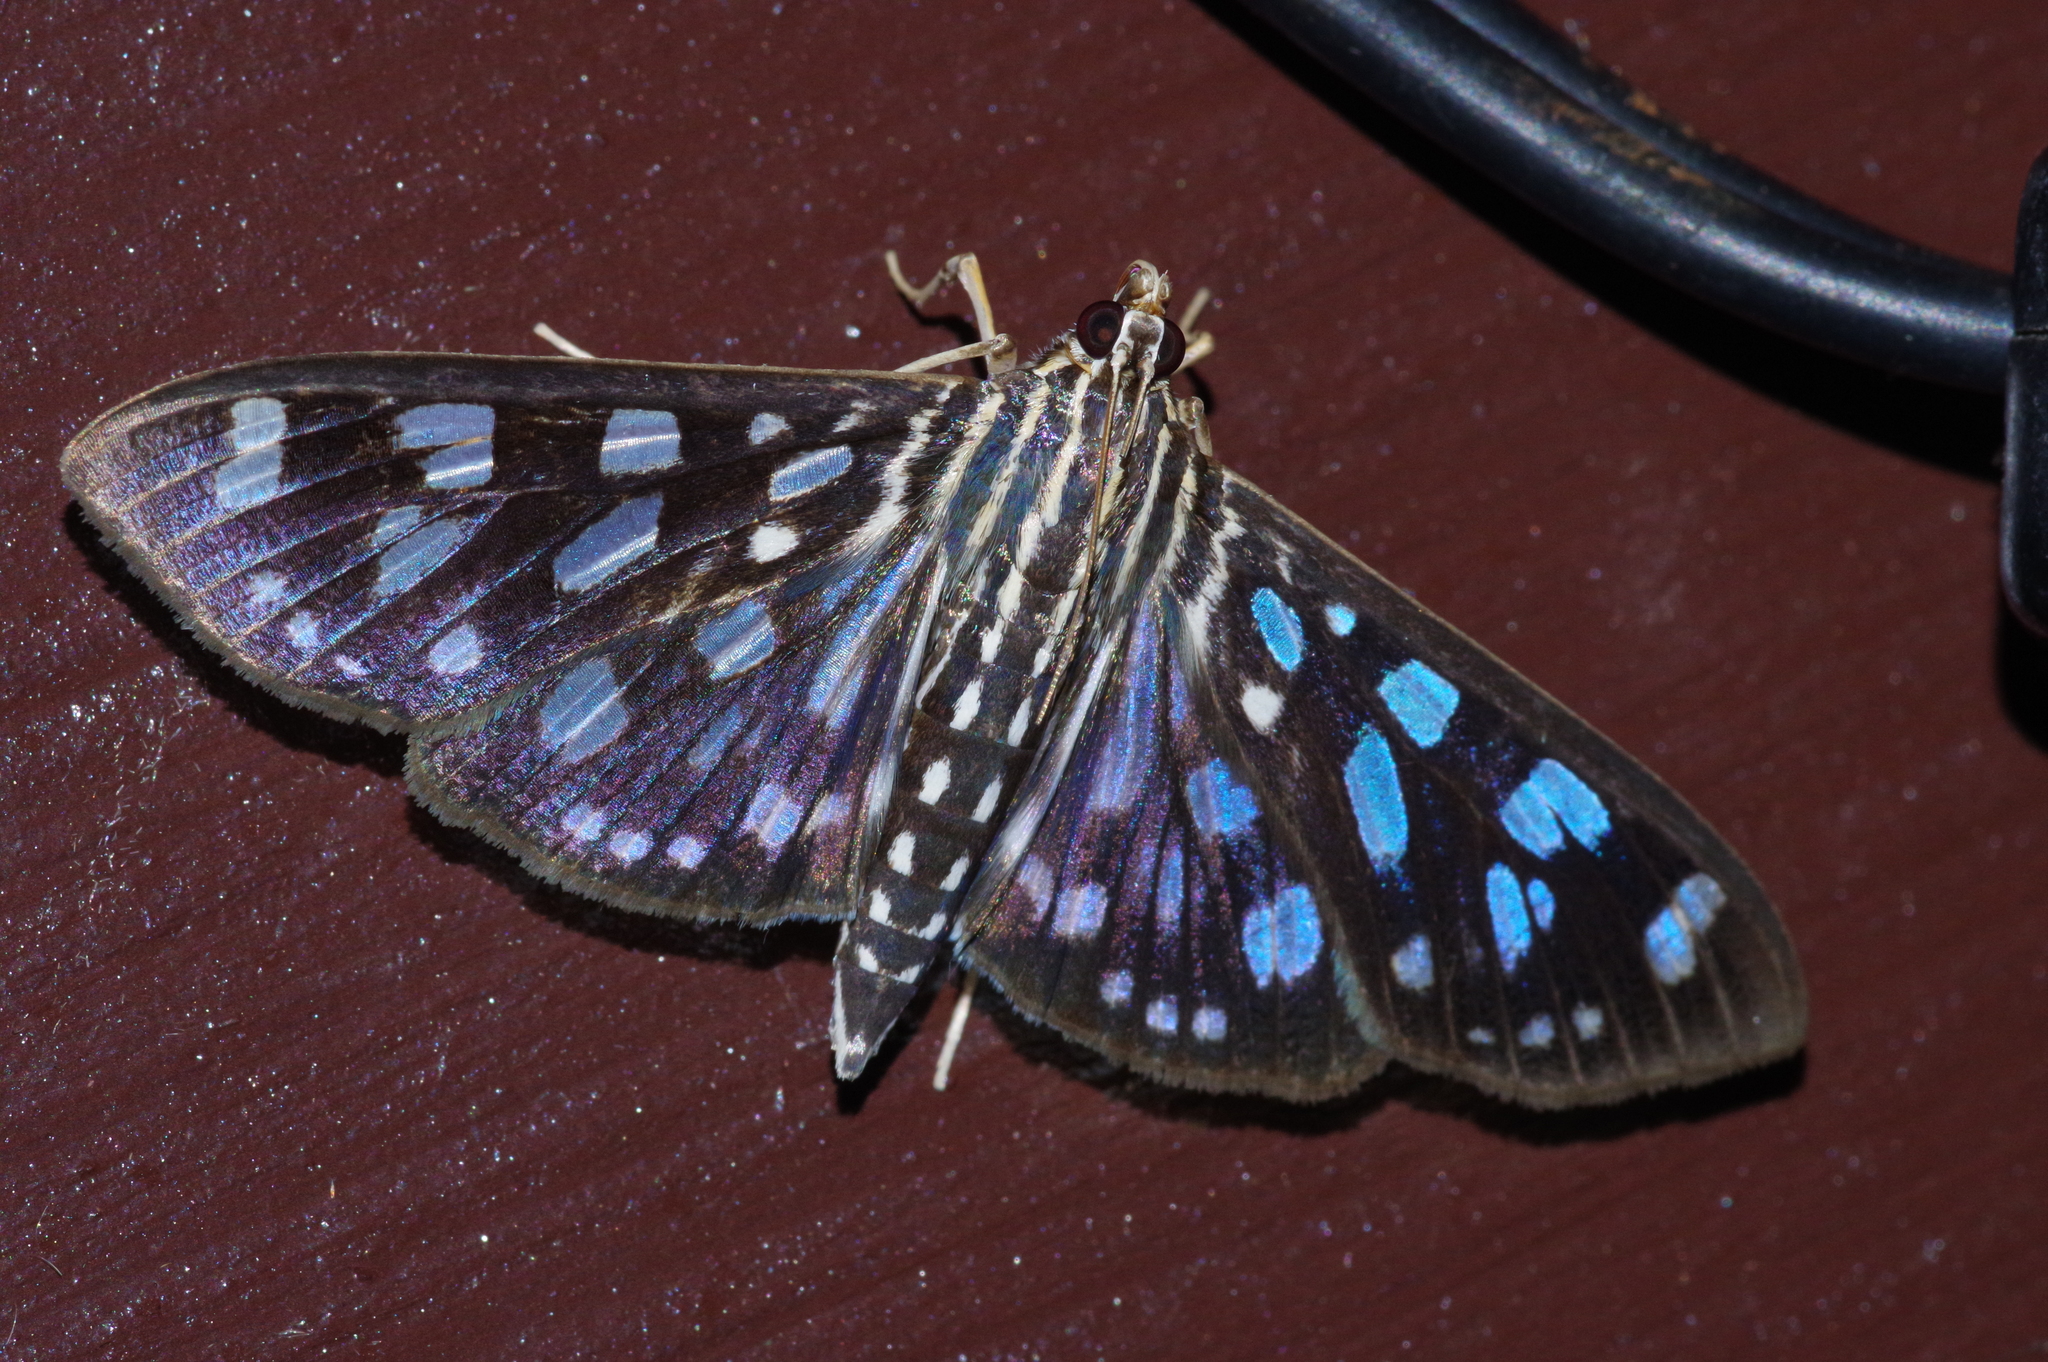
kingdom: Animalia
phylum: Arthropoda
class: Insecta
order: Lepidoptera
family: Crambidae
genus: Pygospila
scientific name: Pygospila tyres
